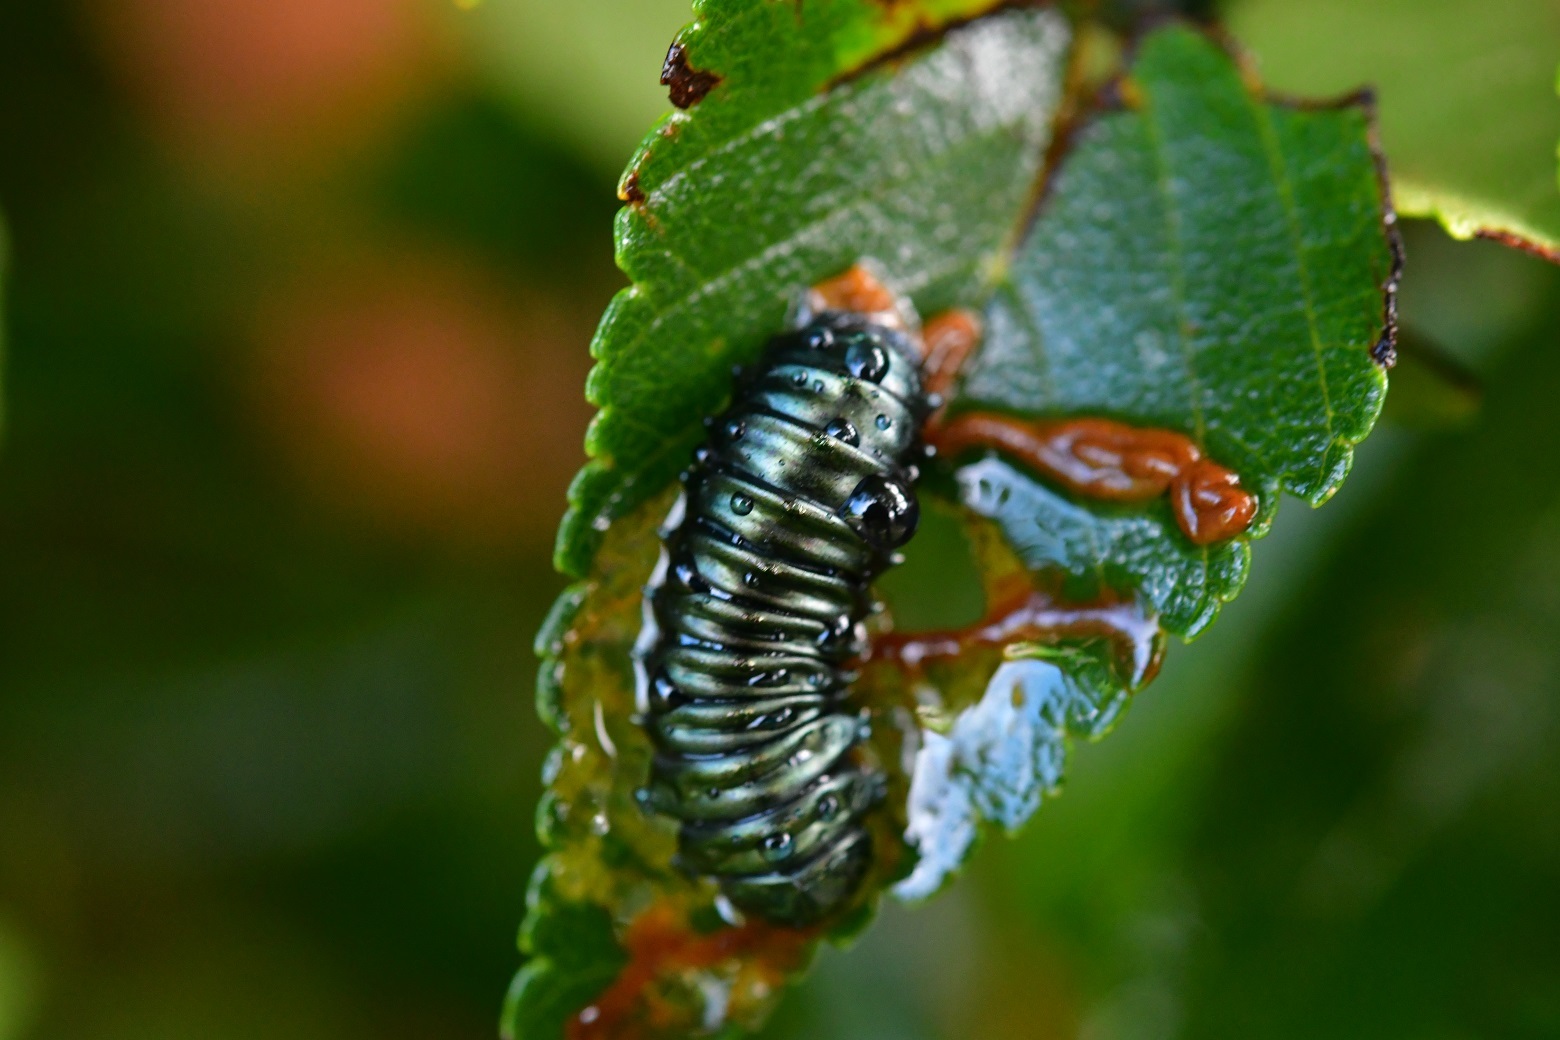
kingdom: Animalia
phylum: Arthropoda
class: Insecta
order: Coleoptera
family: Chrysomelidae
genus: Monocesta
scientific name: Monocesta
